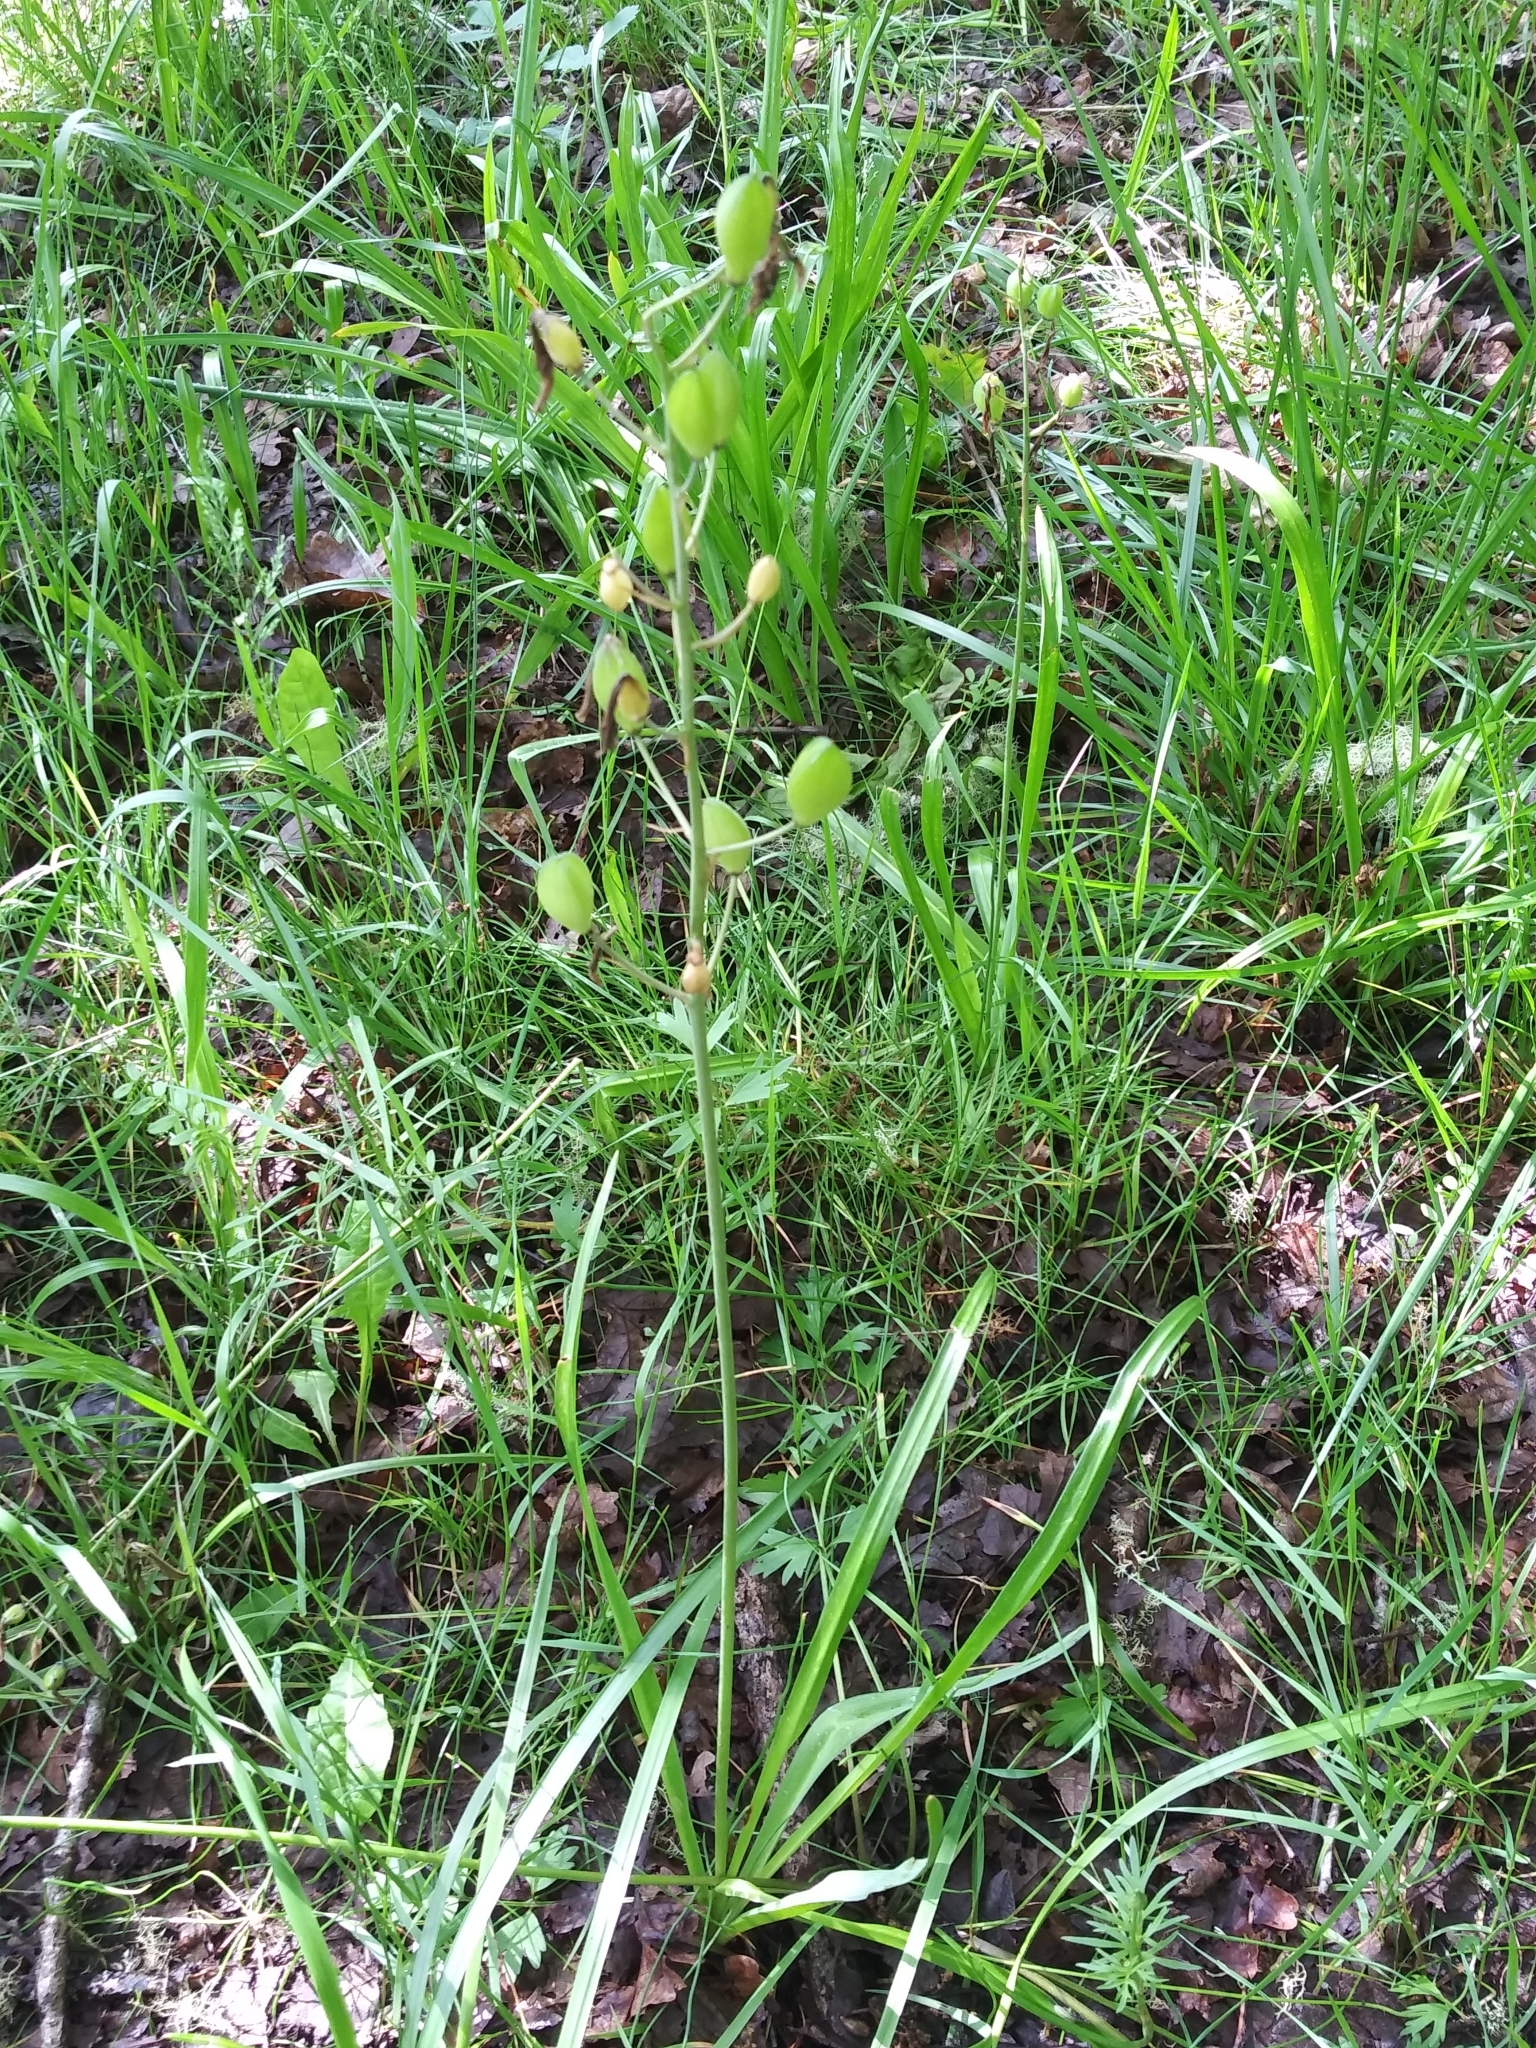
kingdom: Plantae
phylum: Tracheophyta
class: Liliopsida
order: Asparagales
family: Asparagaceae
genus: Camassia
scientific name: Camassia leichtlinii
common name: Leichtlin's camas
